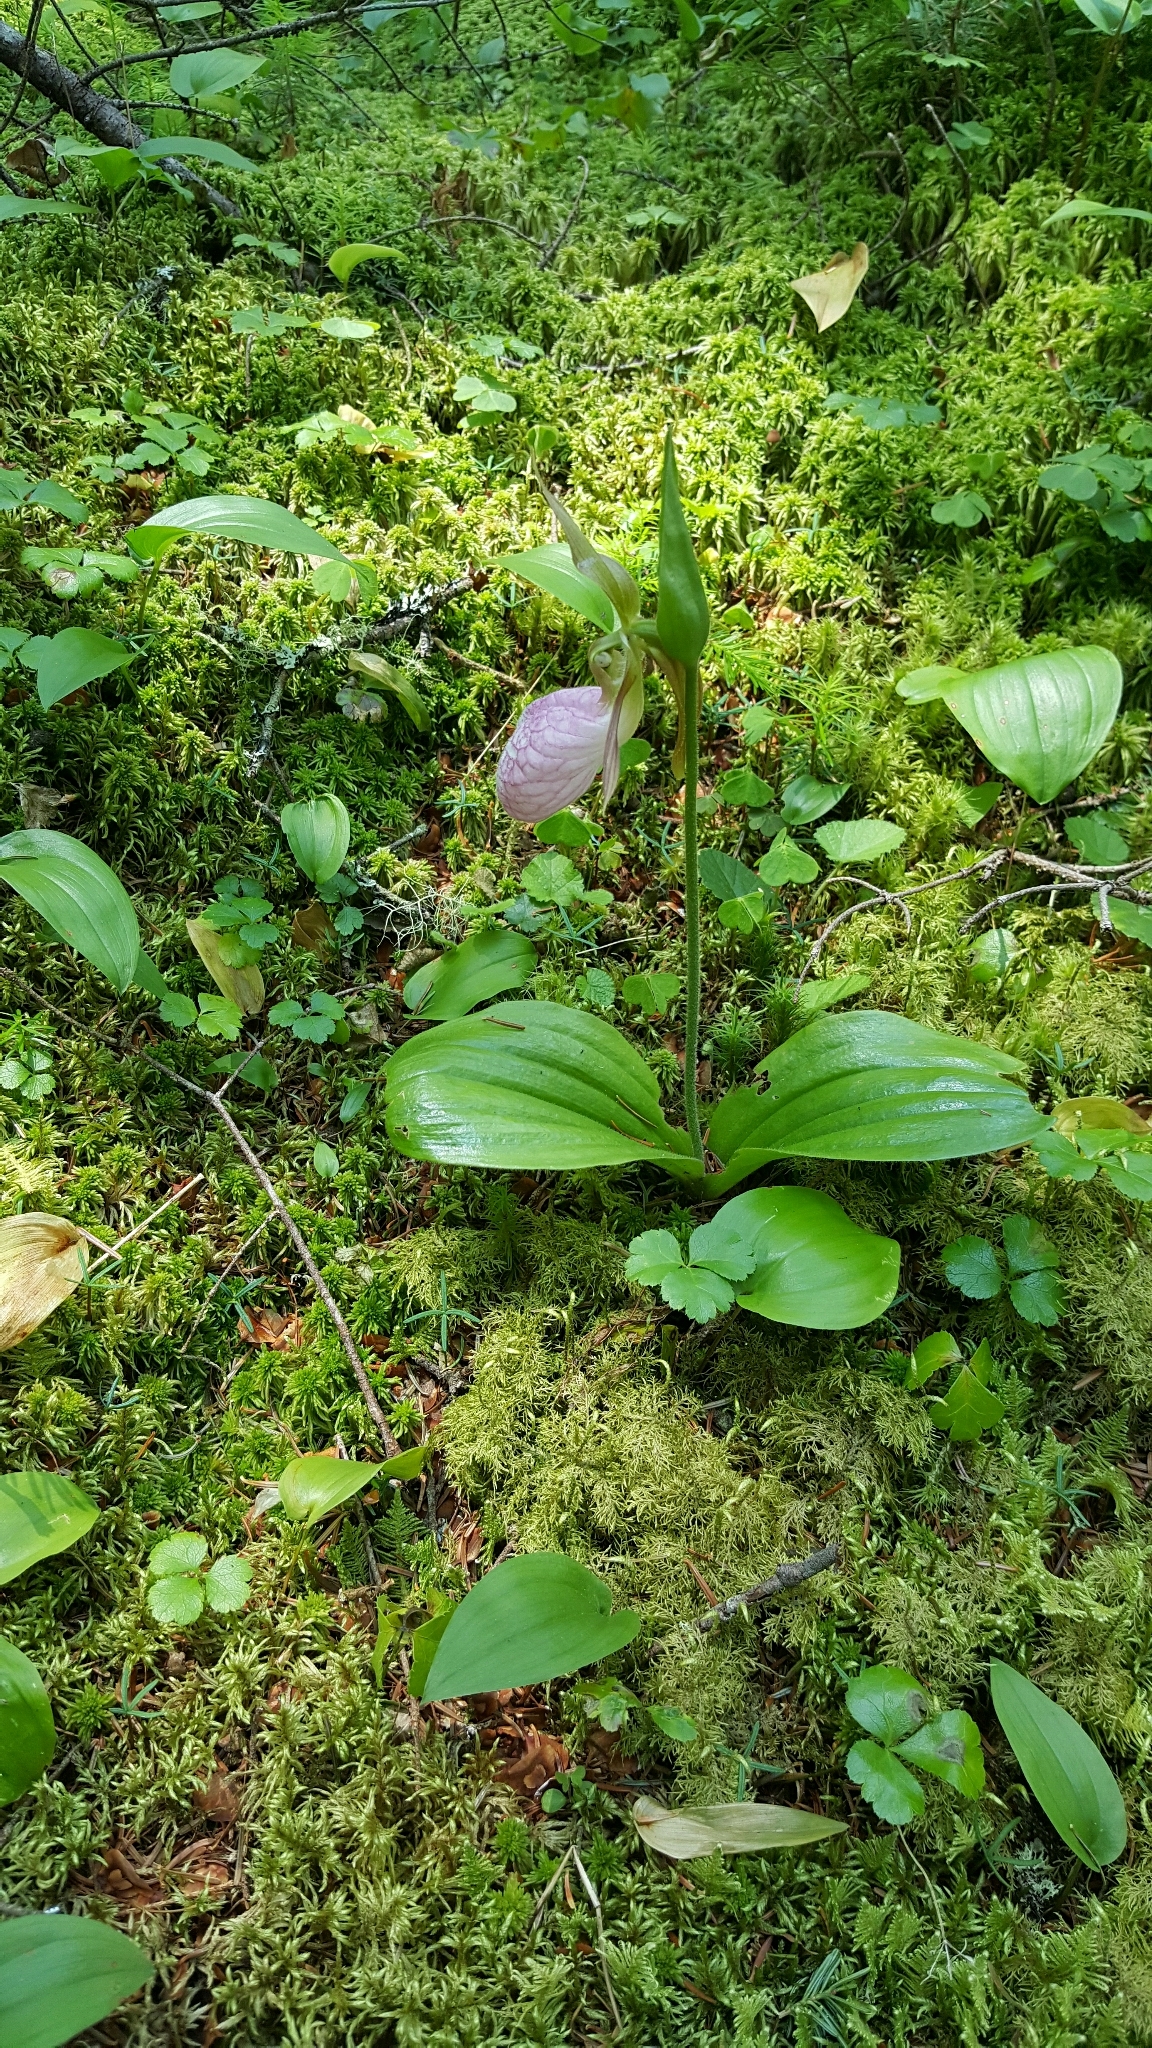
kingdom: Plantae
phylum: Tracheophyta
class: Liliopsida
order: Asparagales
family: Orchidaceae
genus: Cypripedium
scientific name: Cypripedium acaule
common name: Pink lady's-slipper
